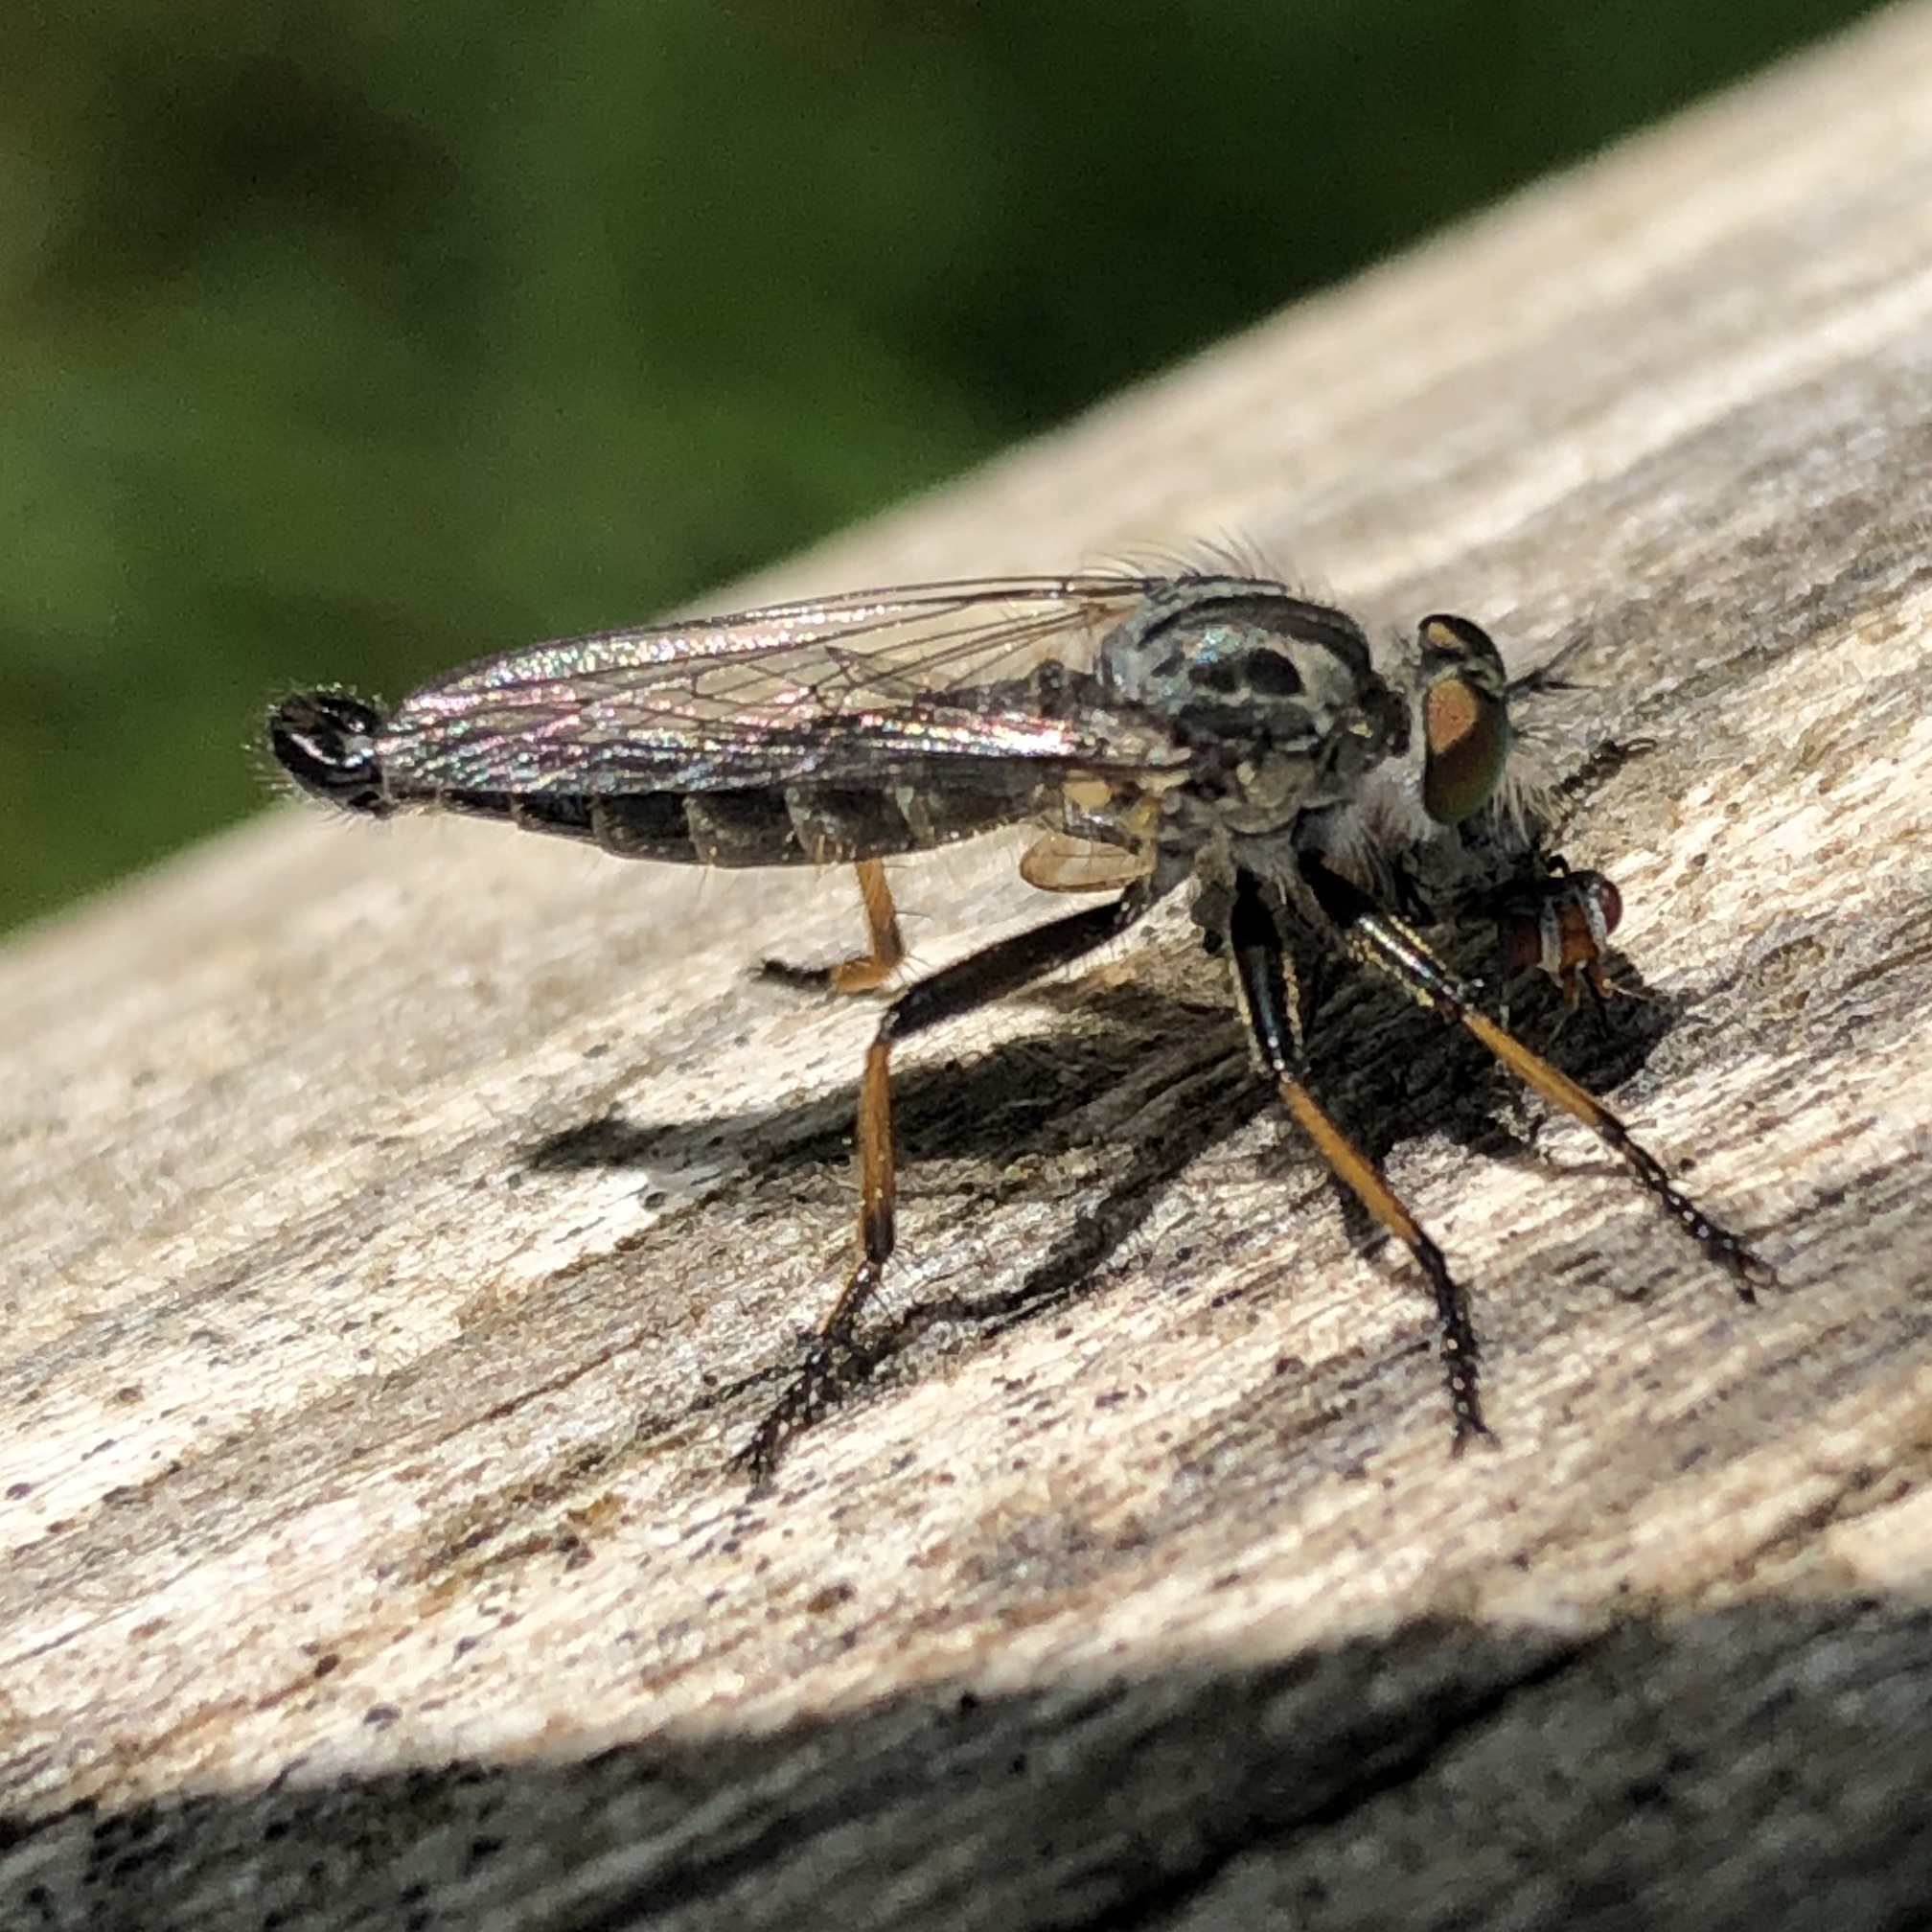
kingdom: Animalia
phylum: Arthropoda
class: Insecta
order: Diptera
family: Asilidae
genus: Neoitamus
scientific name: Neoitamus cyanurus
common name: Common awl robberfly
